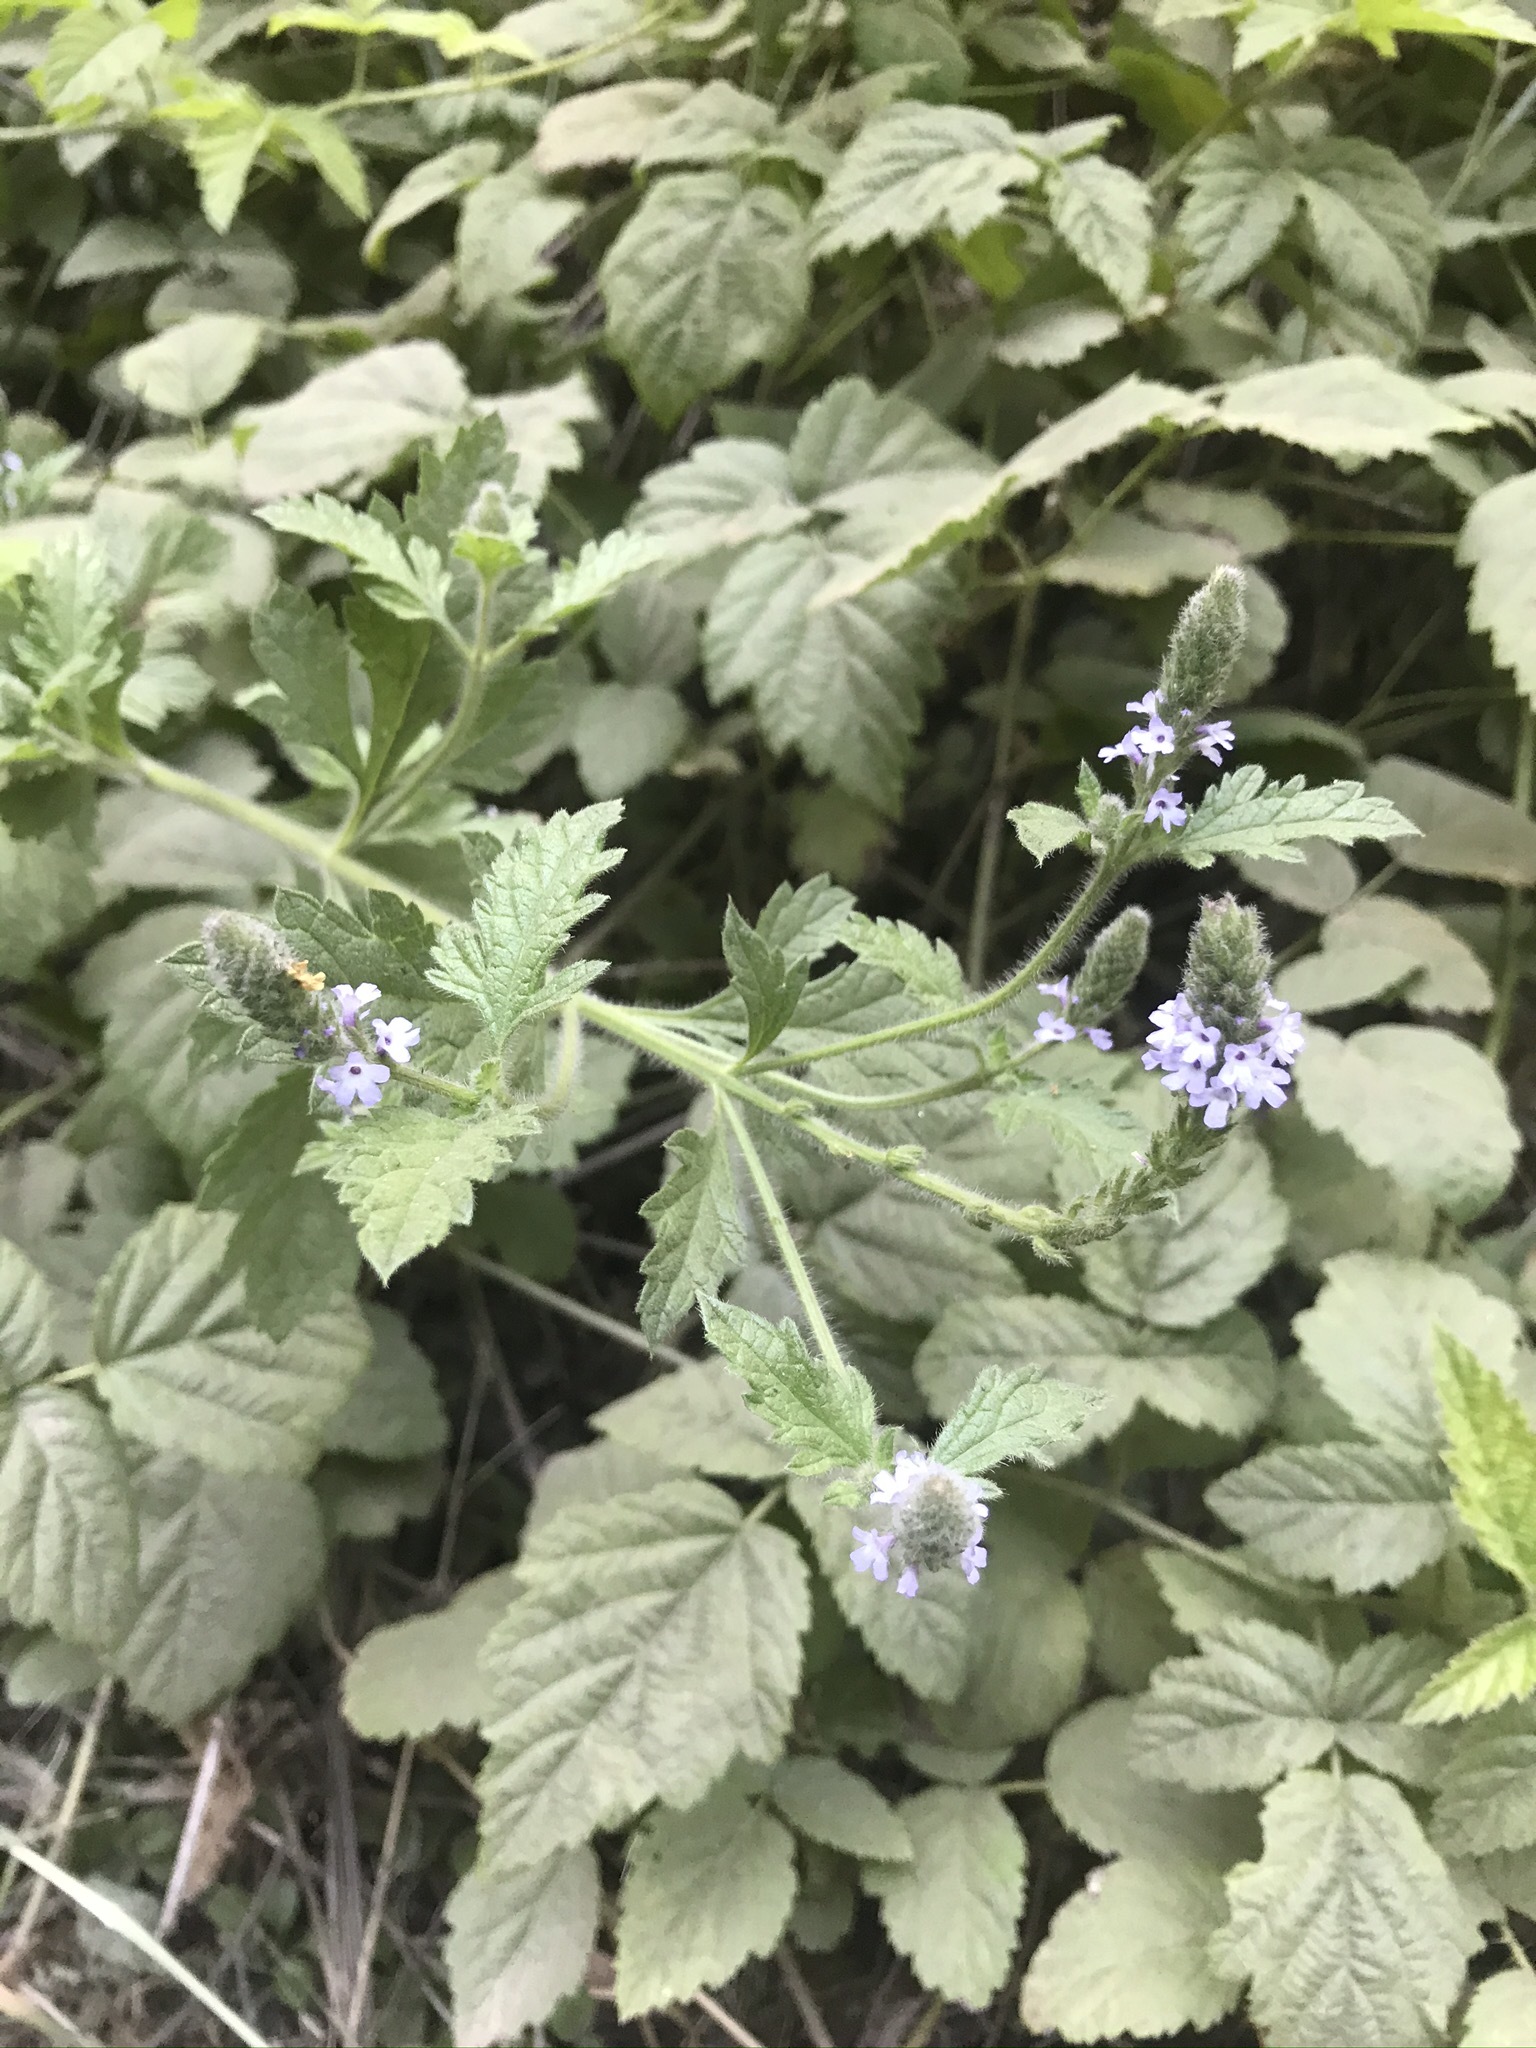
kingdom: Plantae
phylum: Tracheophyta
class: Magnoliopsida
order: Lamiales
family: Verbenaceae
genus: Verbena
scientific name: Verbena lasiostachys
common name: Vervain
